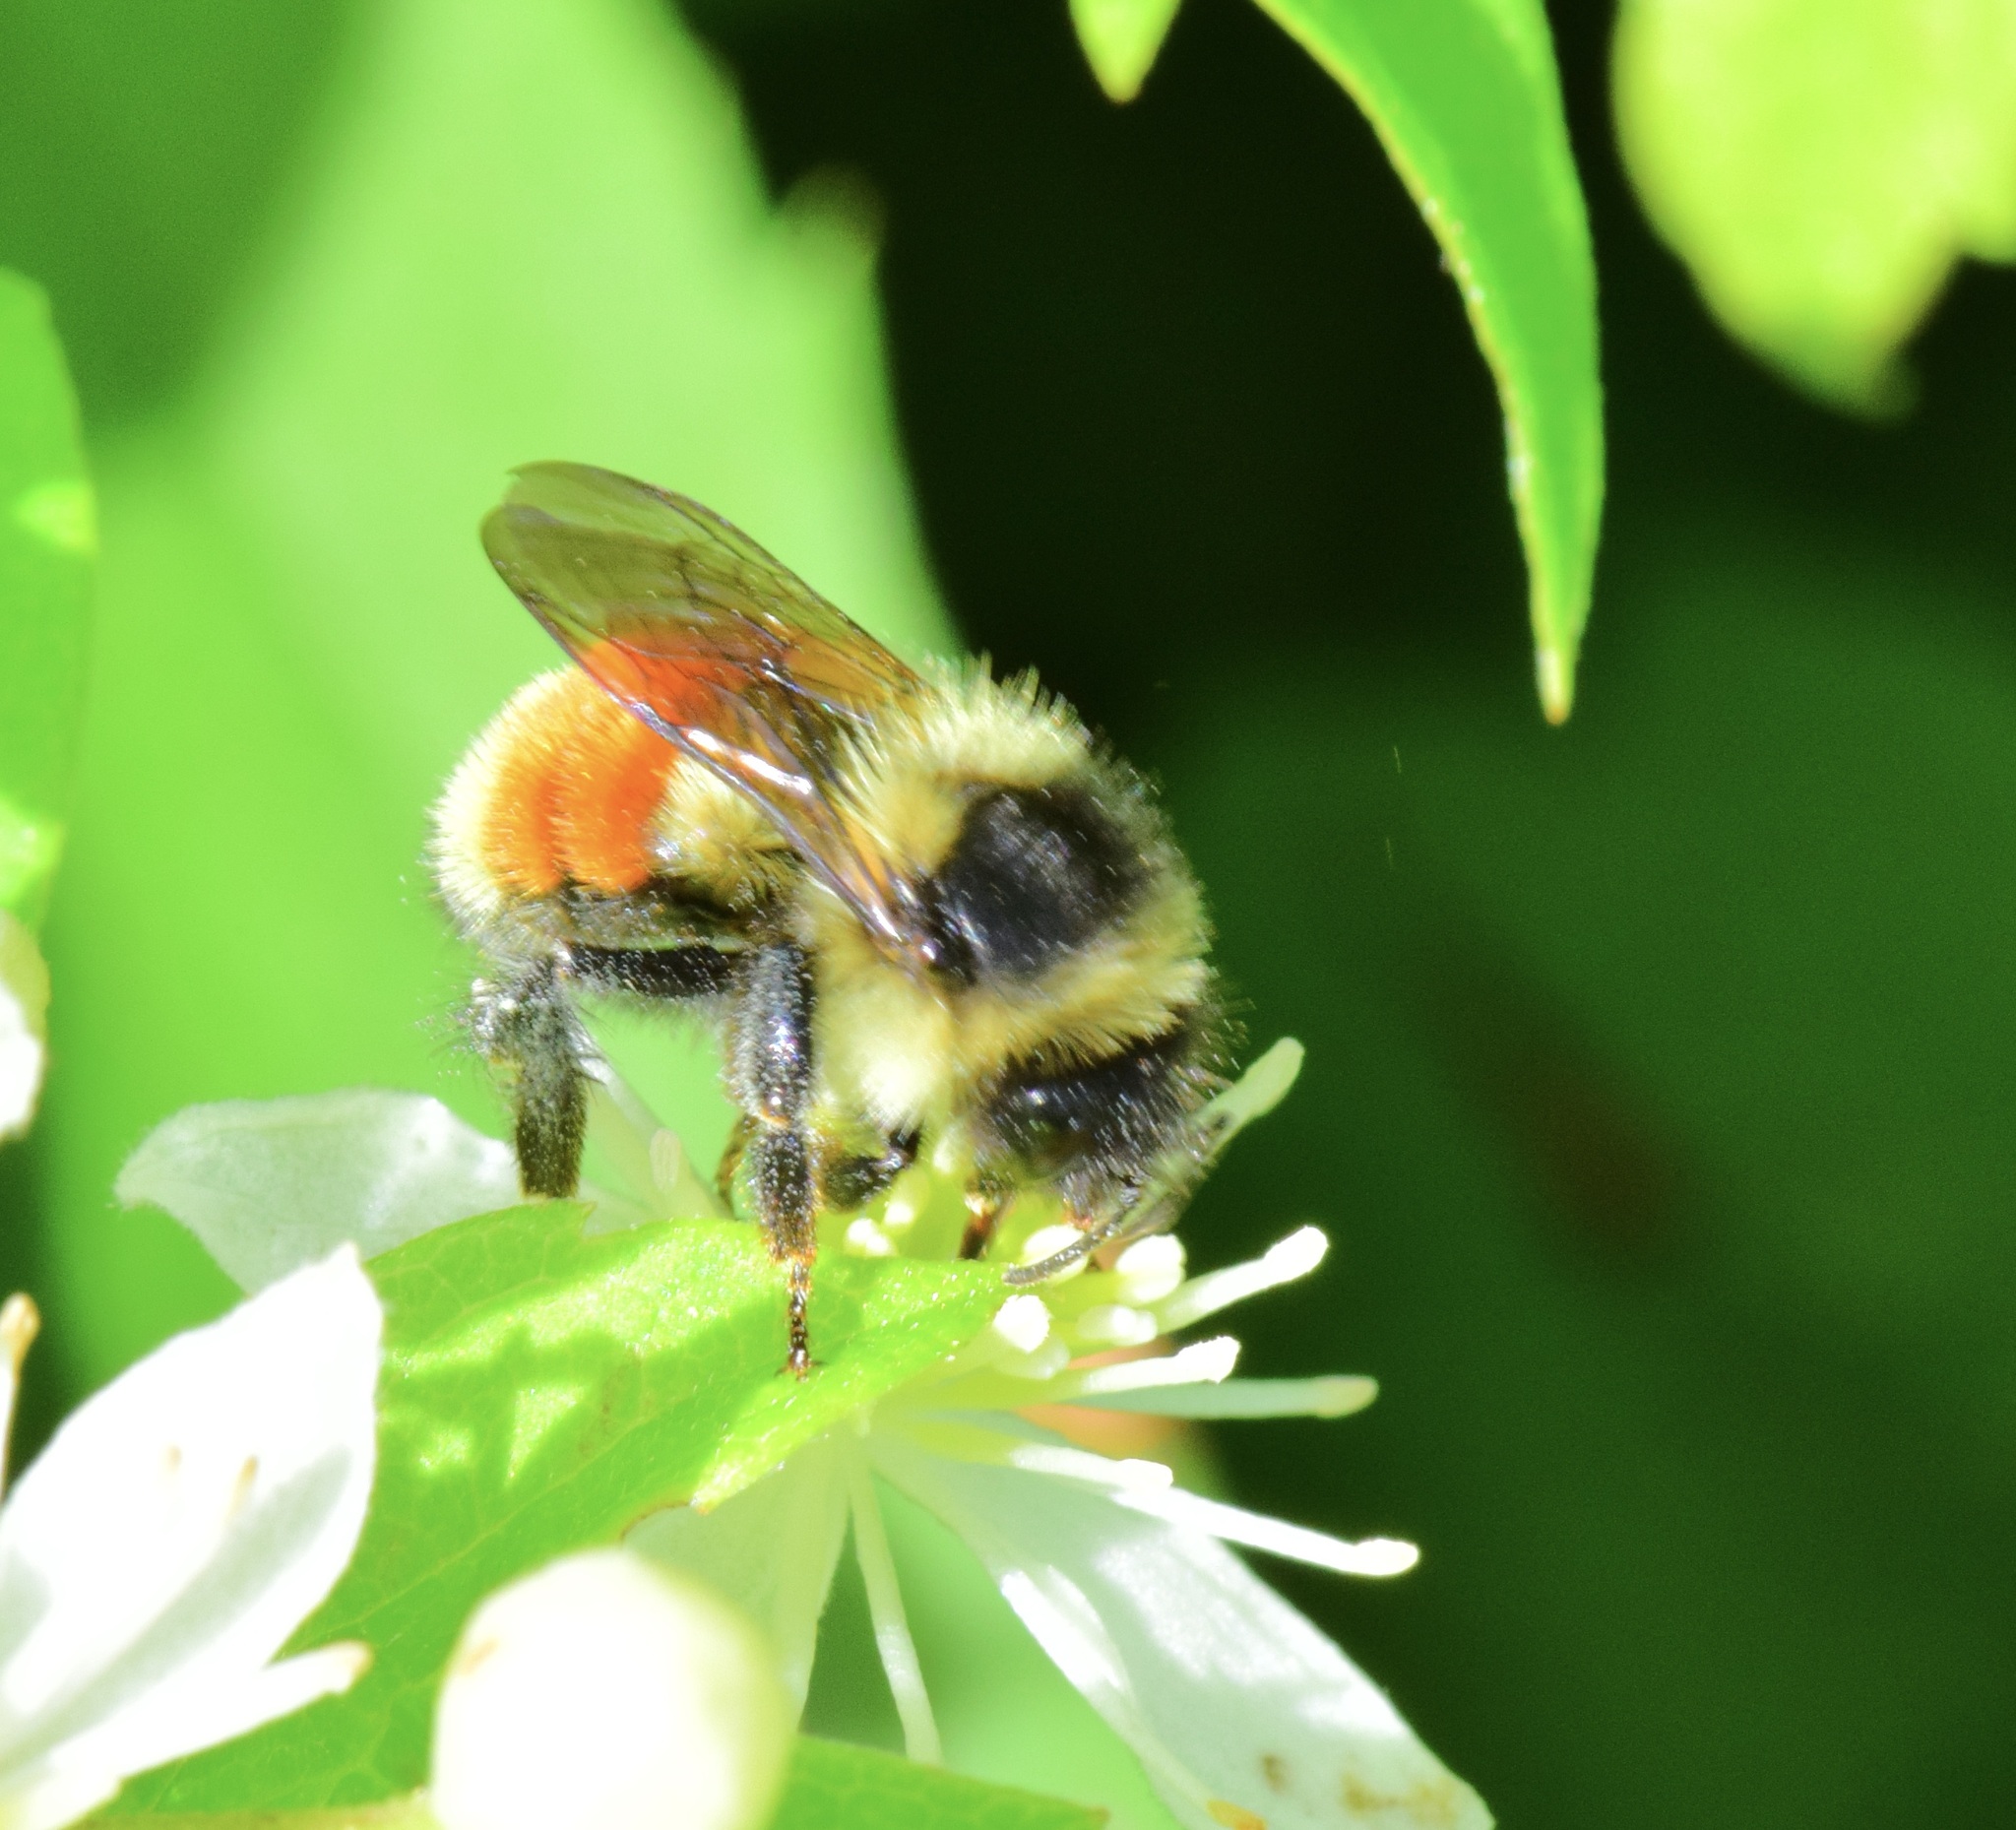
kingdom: Animalia
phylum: Arthropoda
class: Insecta
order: Hymenoptera
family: Apidae
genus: Bombus
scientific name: Bombus ternarius
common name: Tri-colored bumble bee
